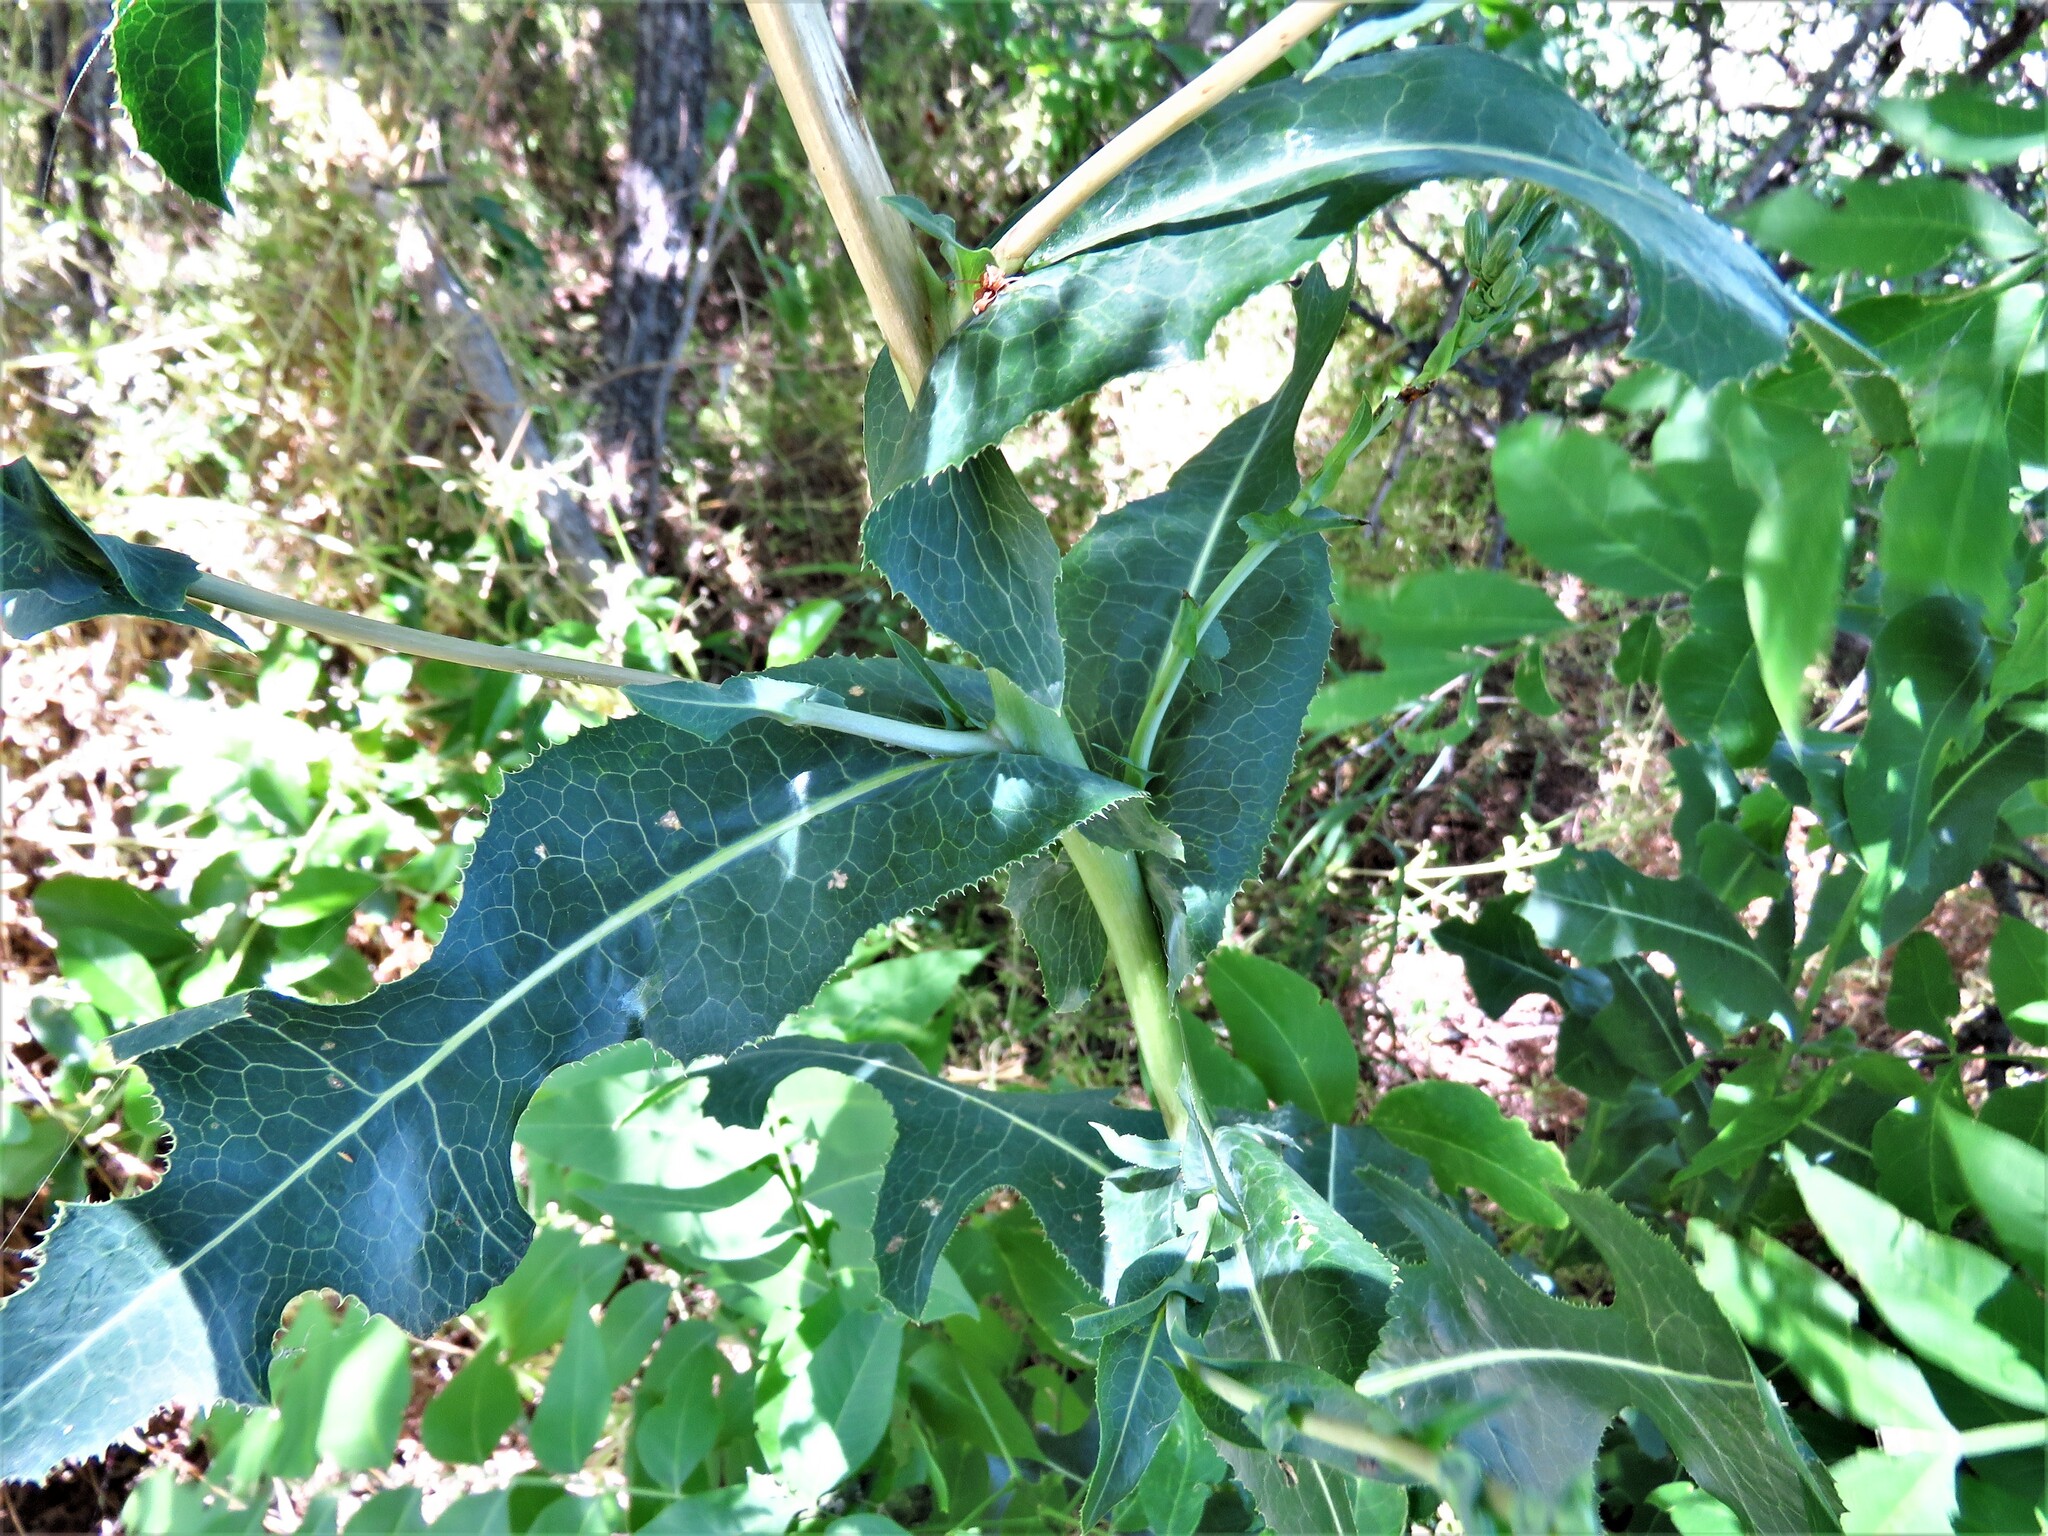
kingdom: Plantae
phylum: Tracheophyta
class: Magnoliopsida
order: Asterales
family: Asteraceae
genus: Lactuca
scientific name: Lactuca serriola
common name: Prickly lettuce
